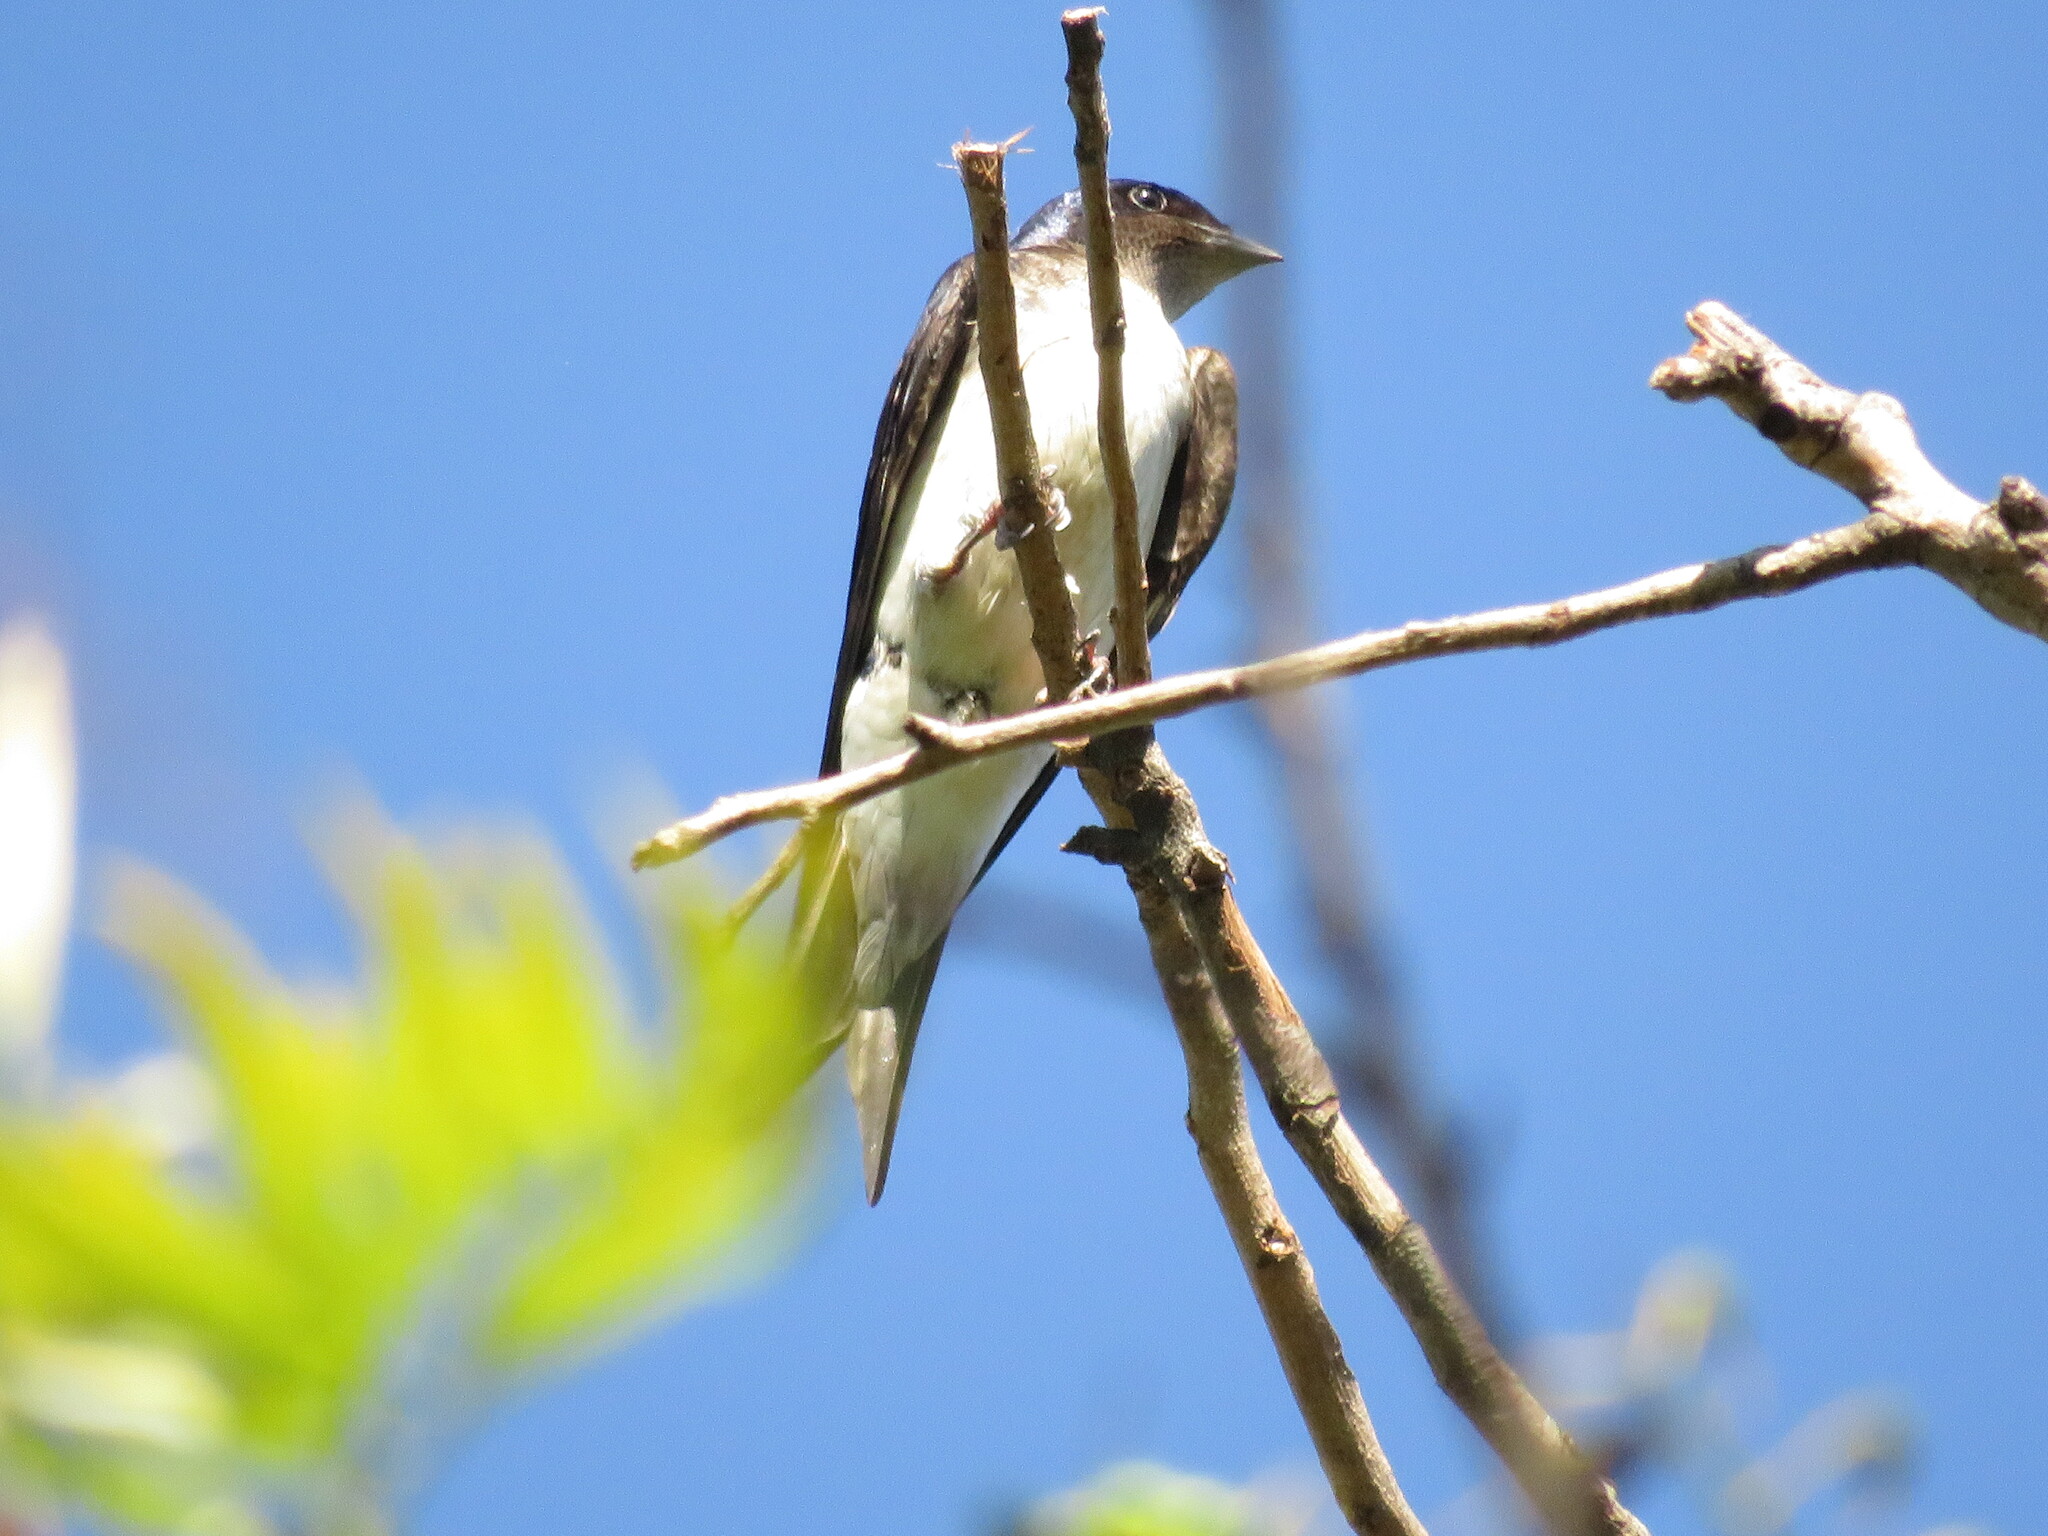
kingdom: Animalia
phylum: Chordata
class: Aves
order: Passeriformes
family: Hirundinidae
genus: Progne
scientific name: Progne chalybea
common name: Grey-breasted martin
